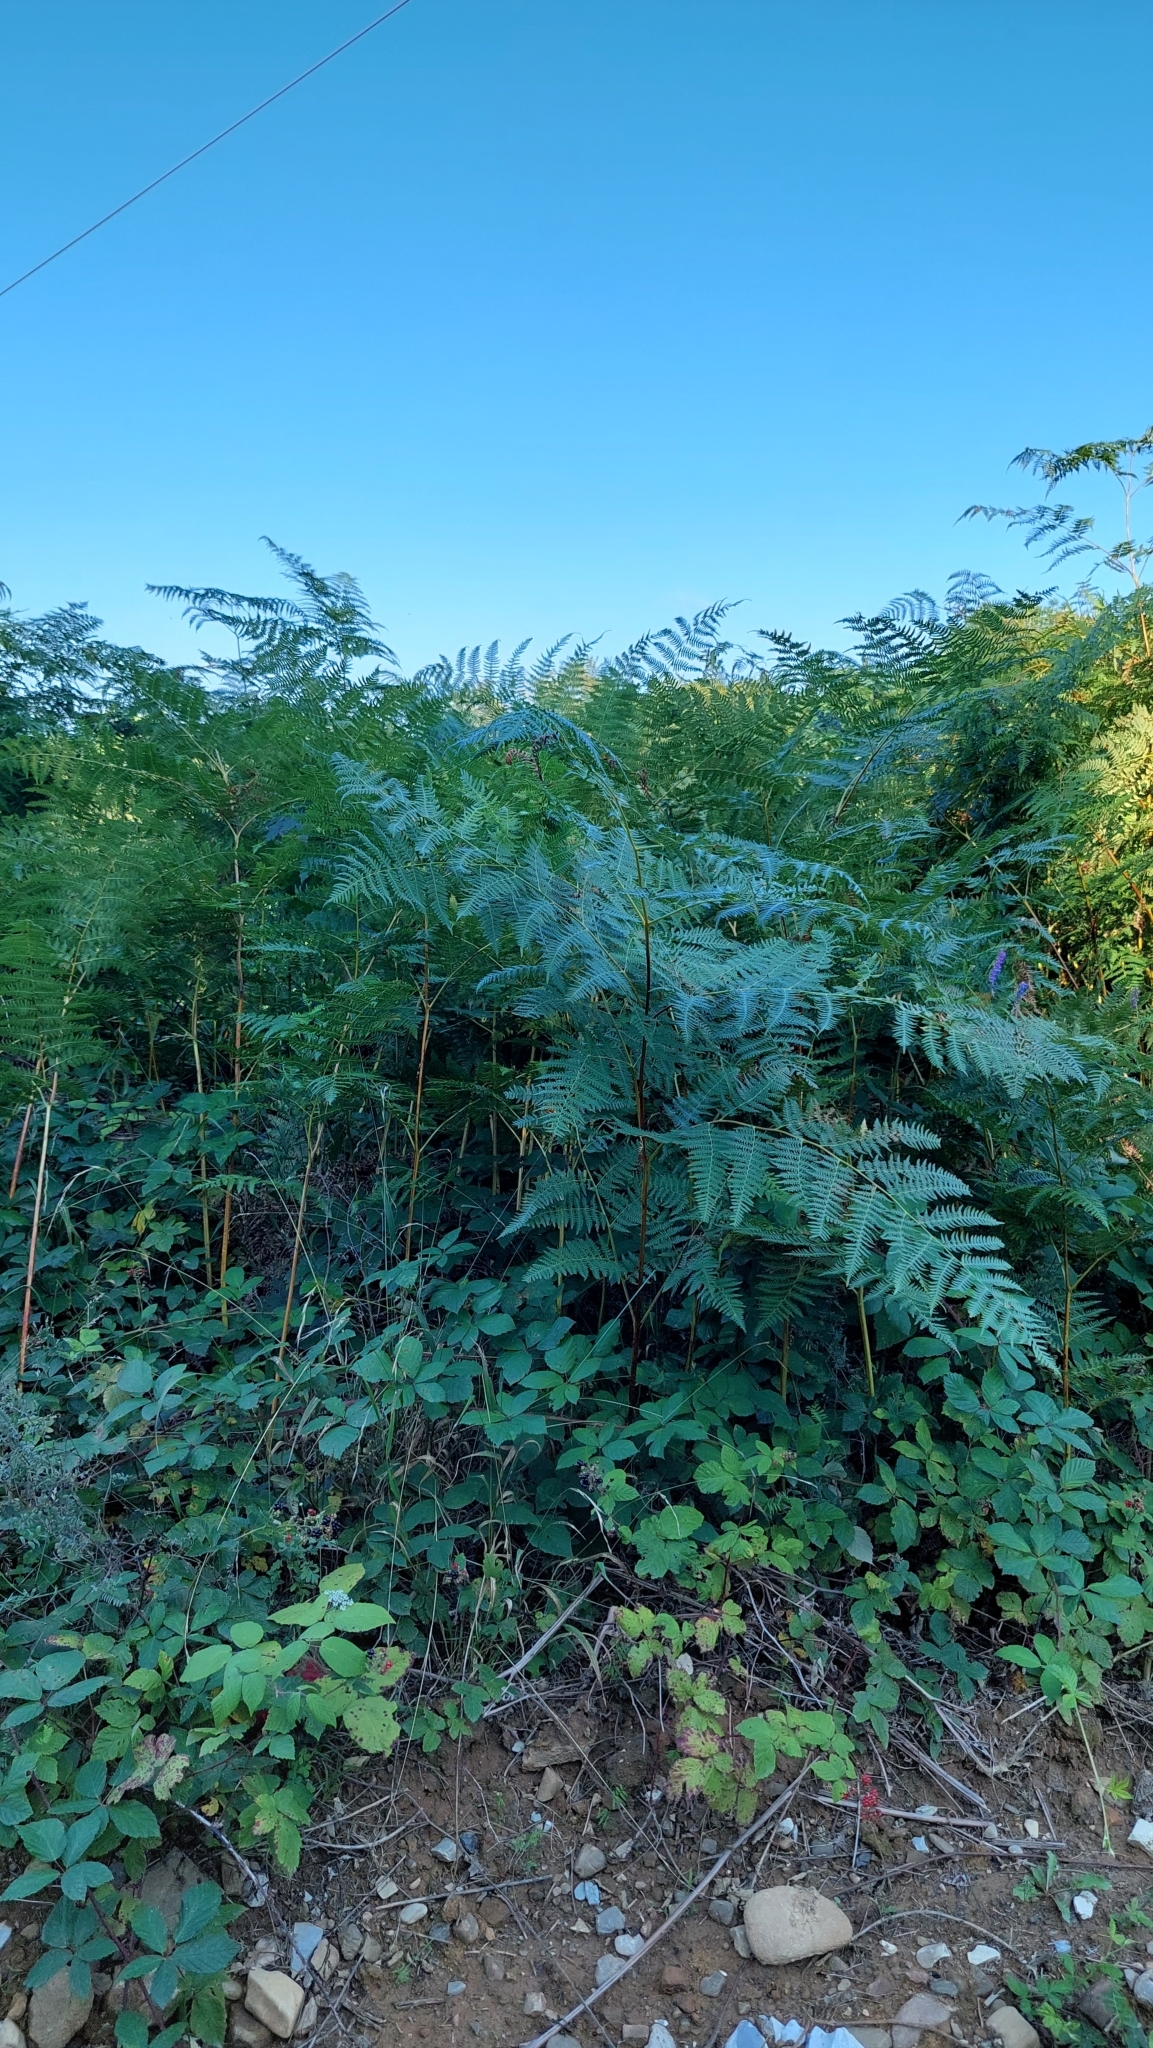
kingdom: Plantae
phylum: Tracheophyta
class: Polypodiopsida
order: Polypodiales
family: Dennstaedtiaceae
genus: Pteridium
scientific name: Pteridium tauricum
